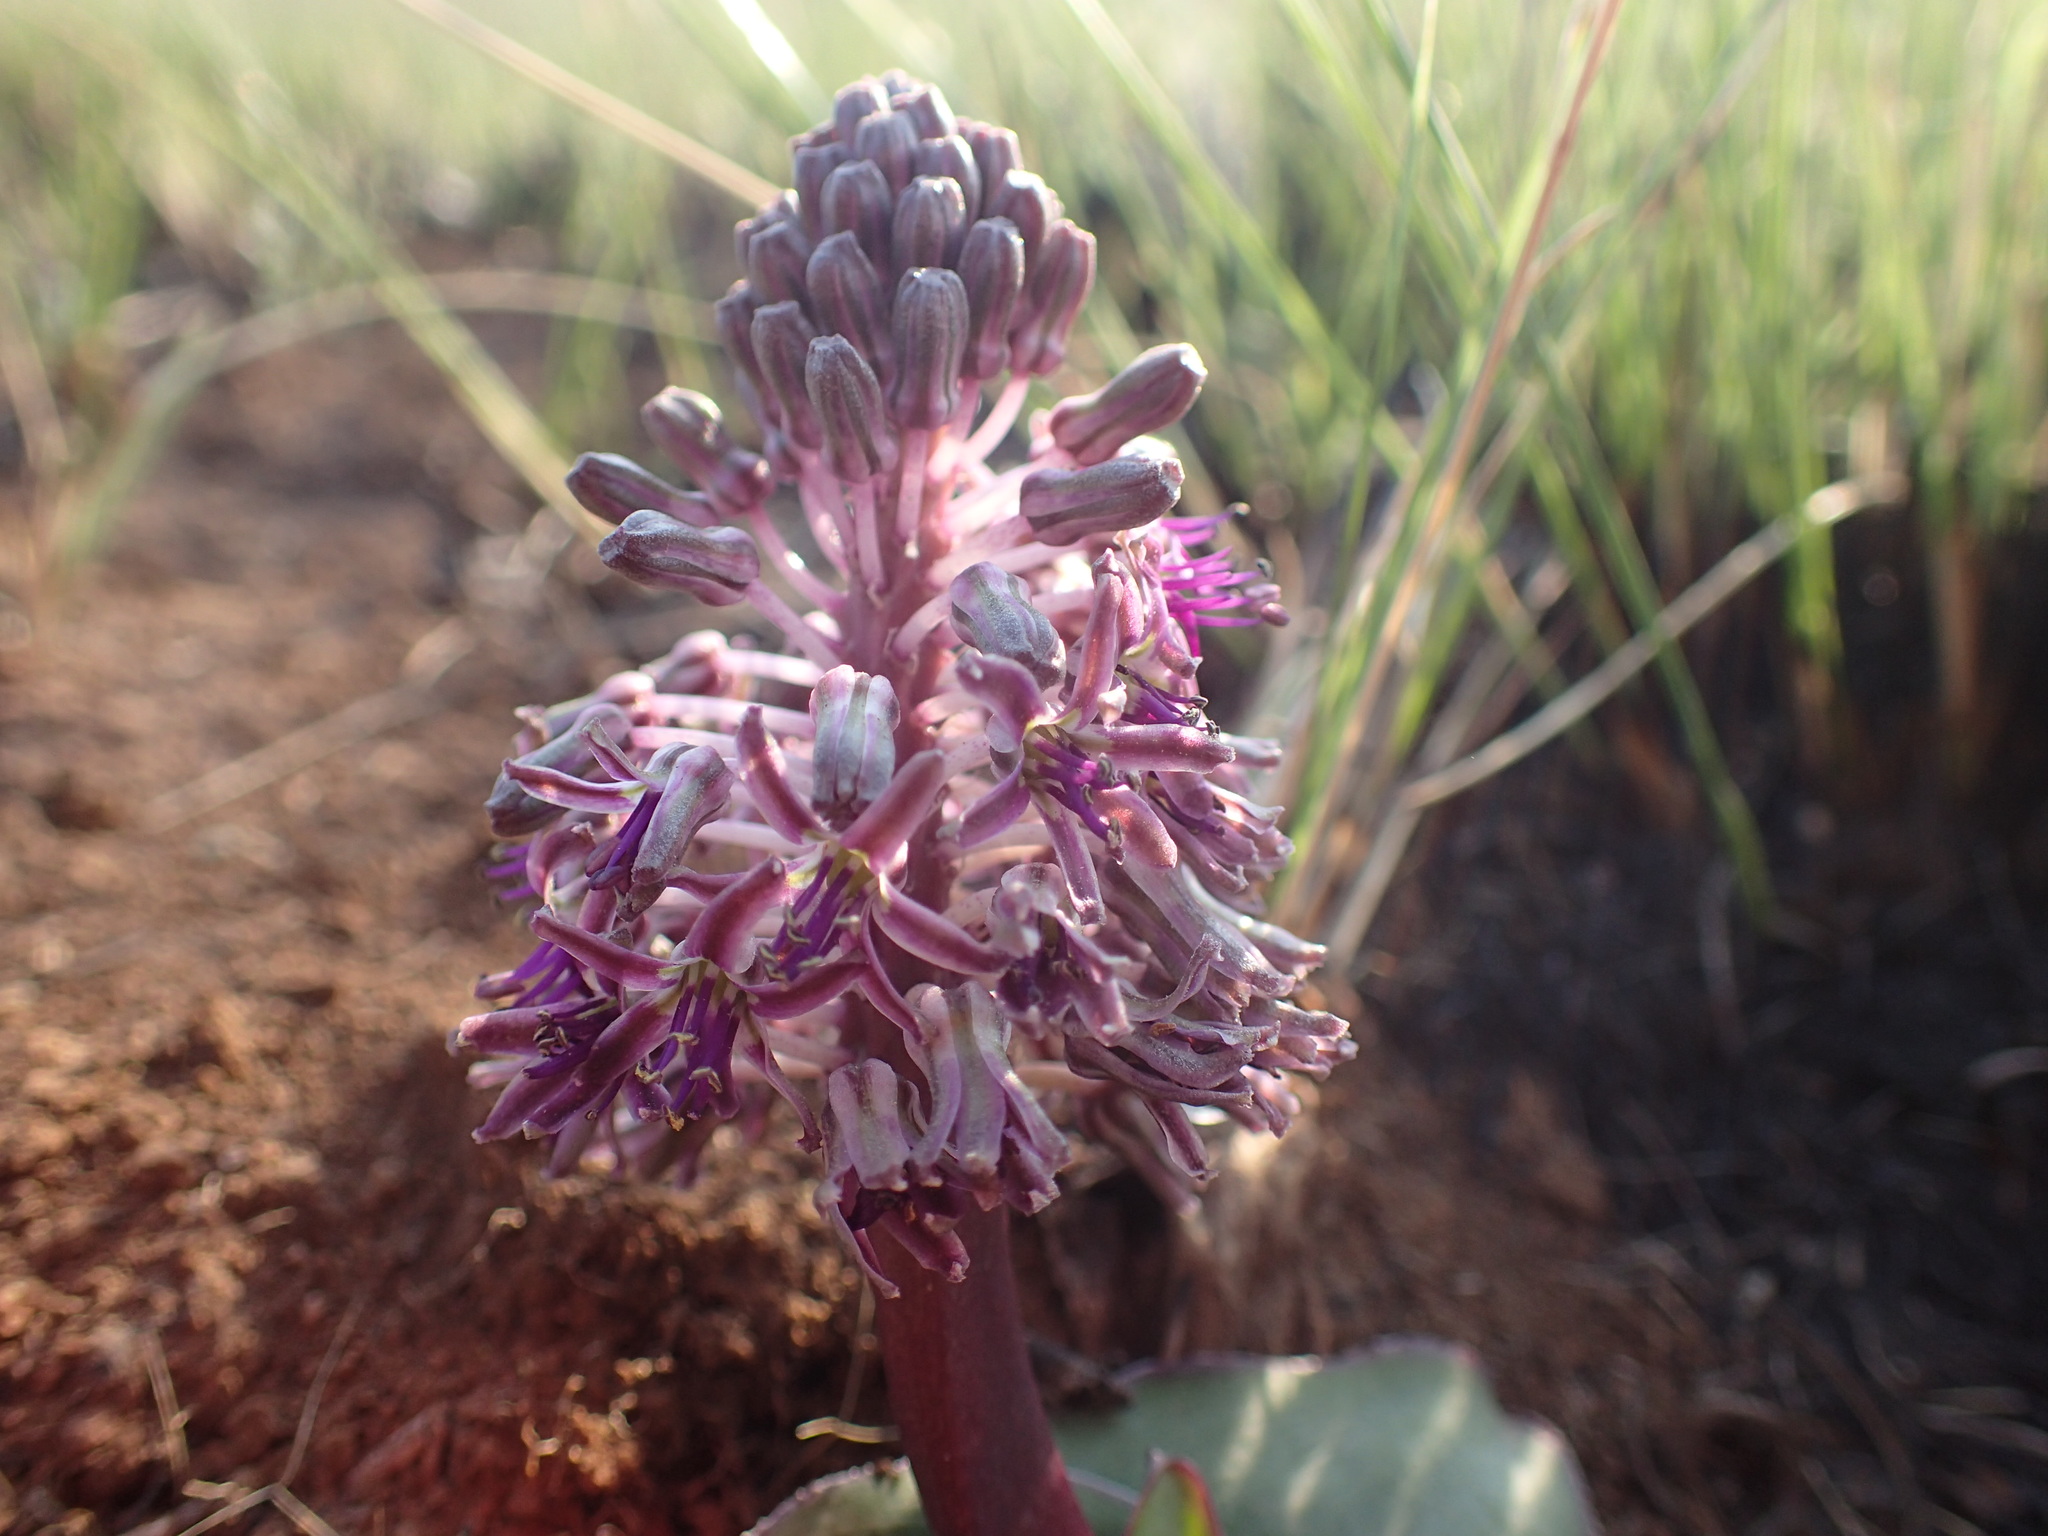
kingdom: Plantae
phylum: Tracheophyta
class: Liliopsida
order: Asparagales
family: Asparagaceae
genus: Ledebouria
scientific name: Ledebouria ovatifolia
